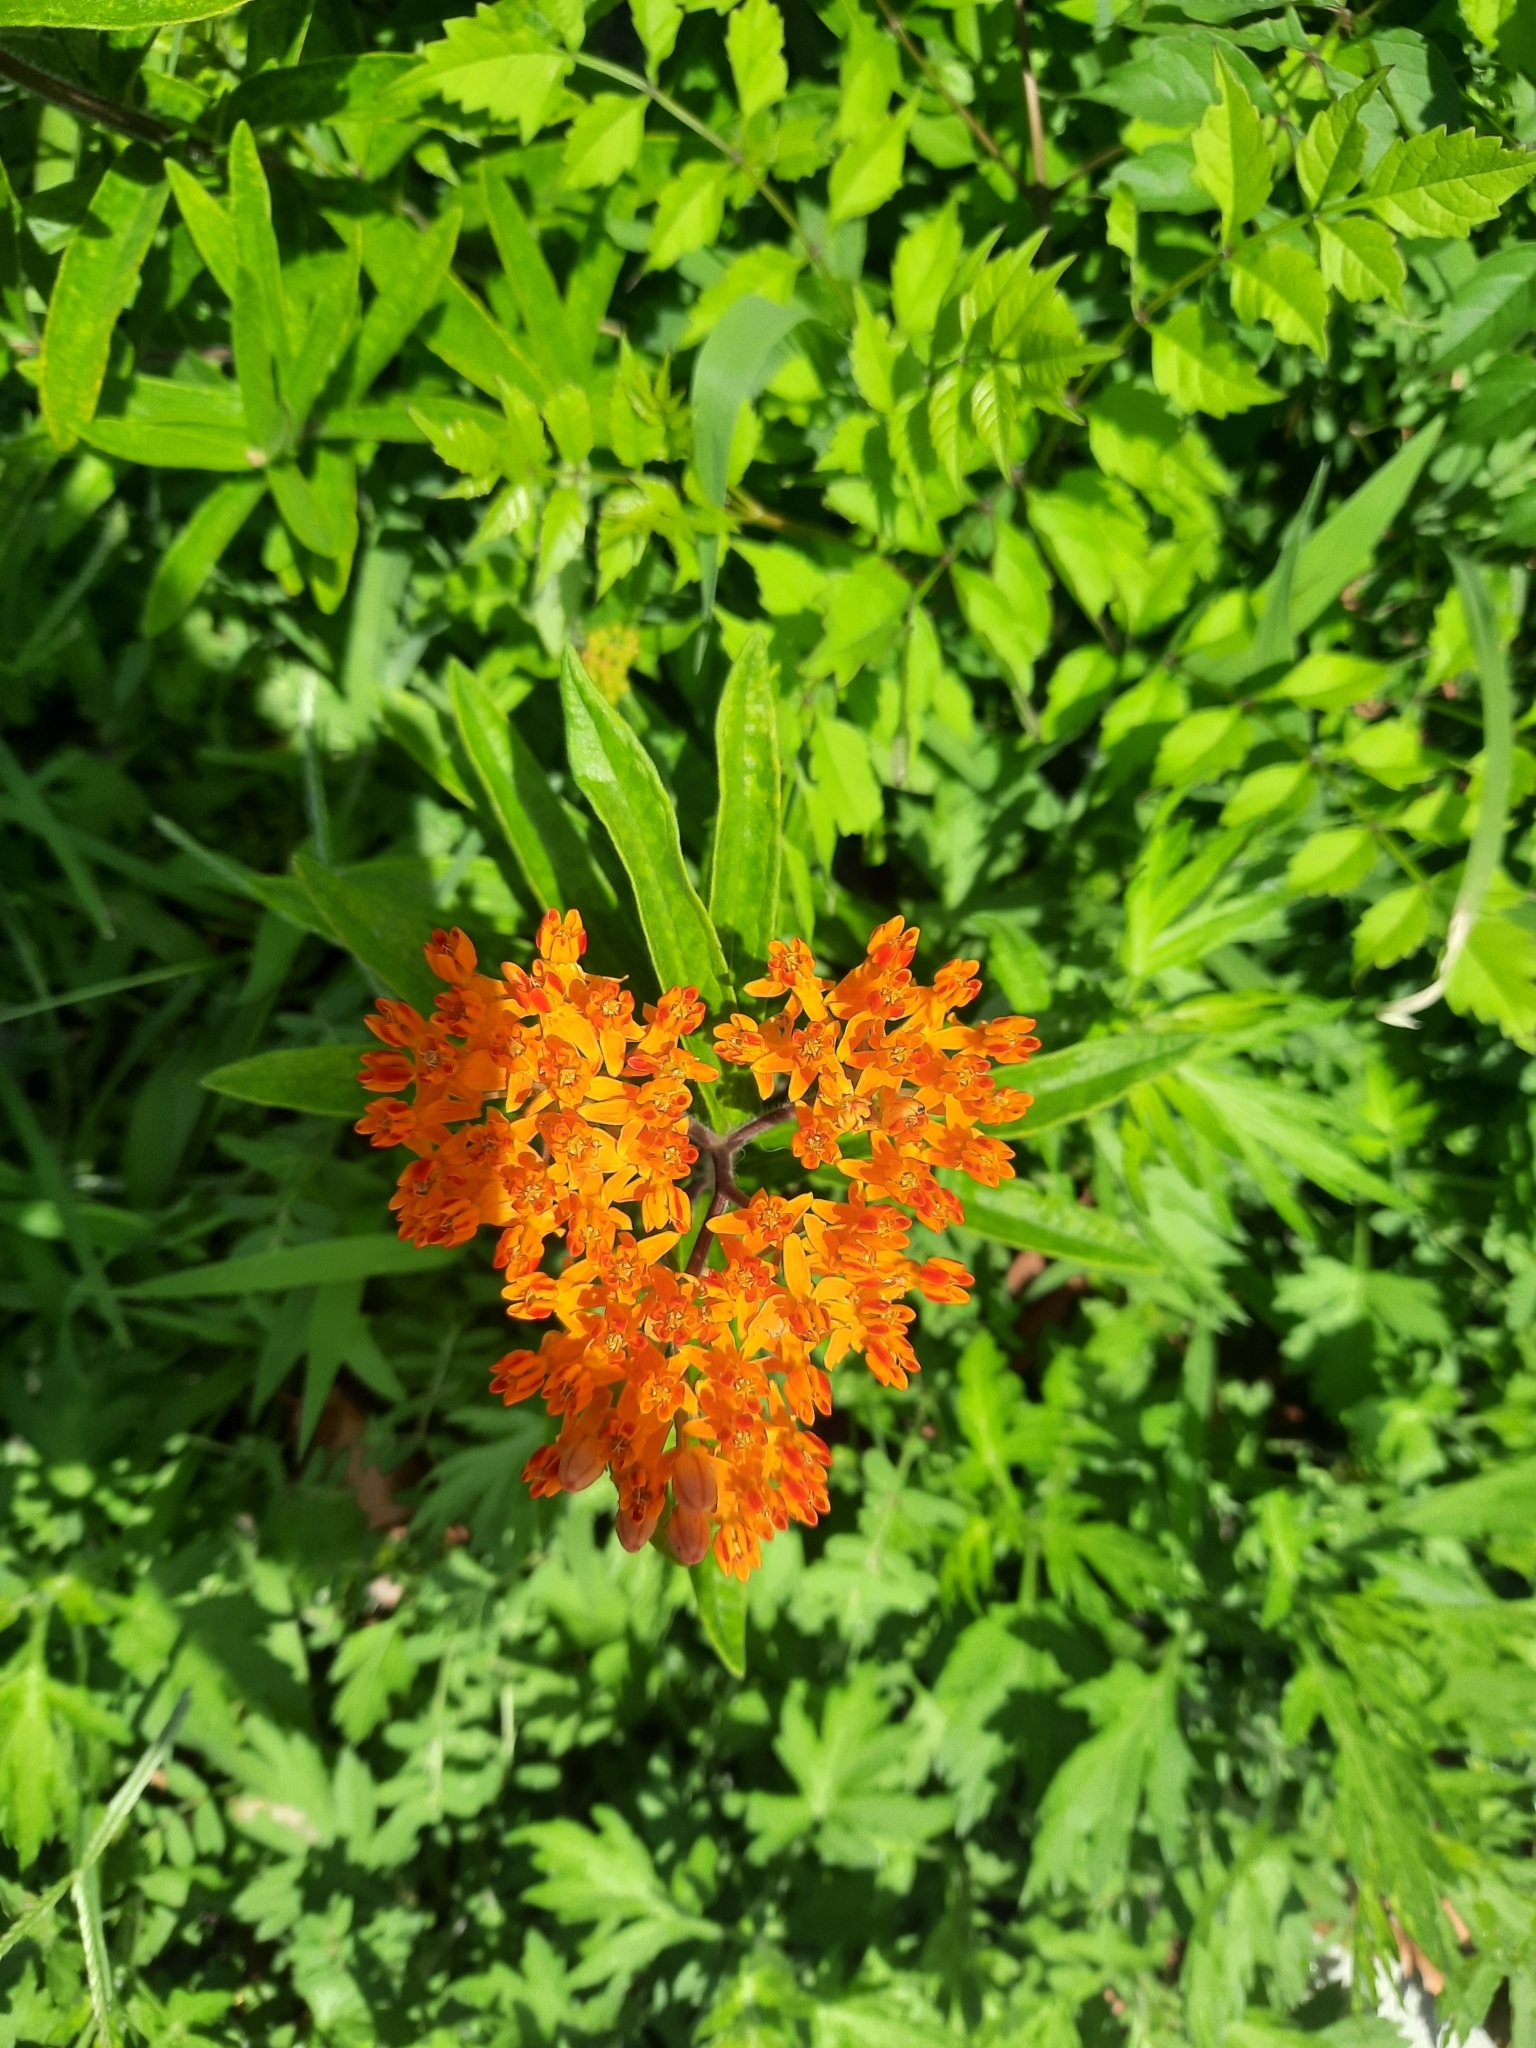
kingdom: Plantae
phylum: Tracheophyta
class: Magnoliopsida
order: Gentianales
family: Apocynaceae
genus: Asclepias
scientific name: Asclepias tuberosa
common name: Butterfly milkweed
